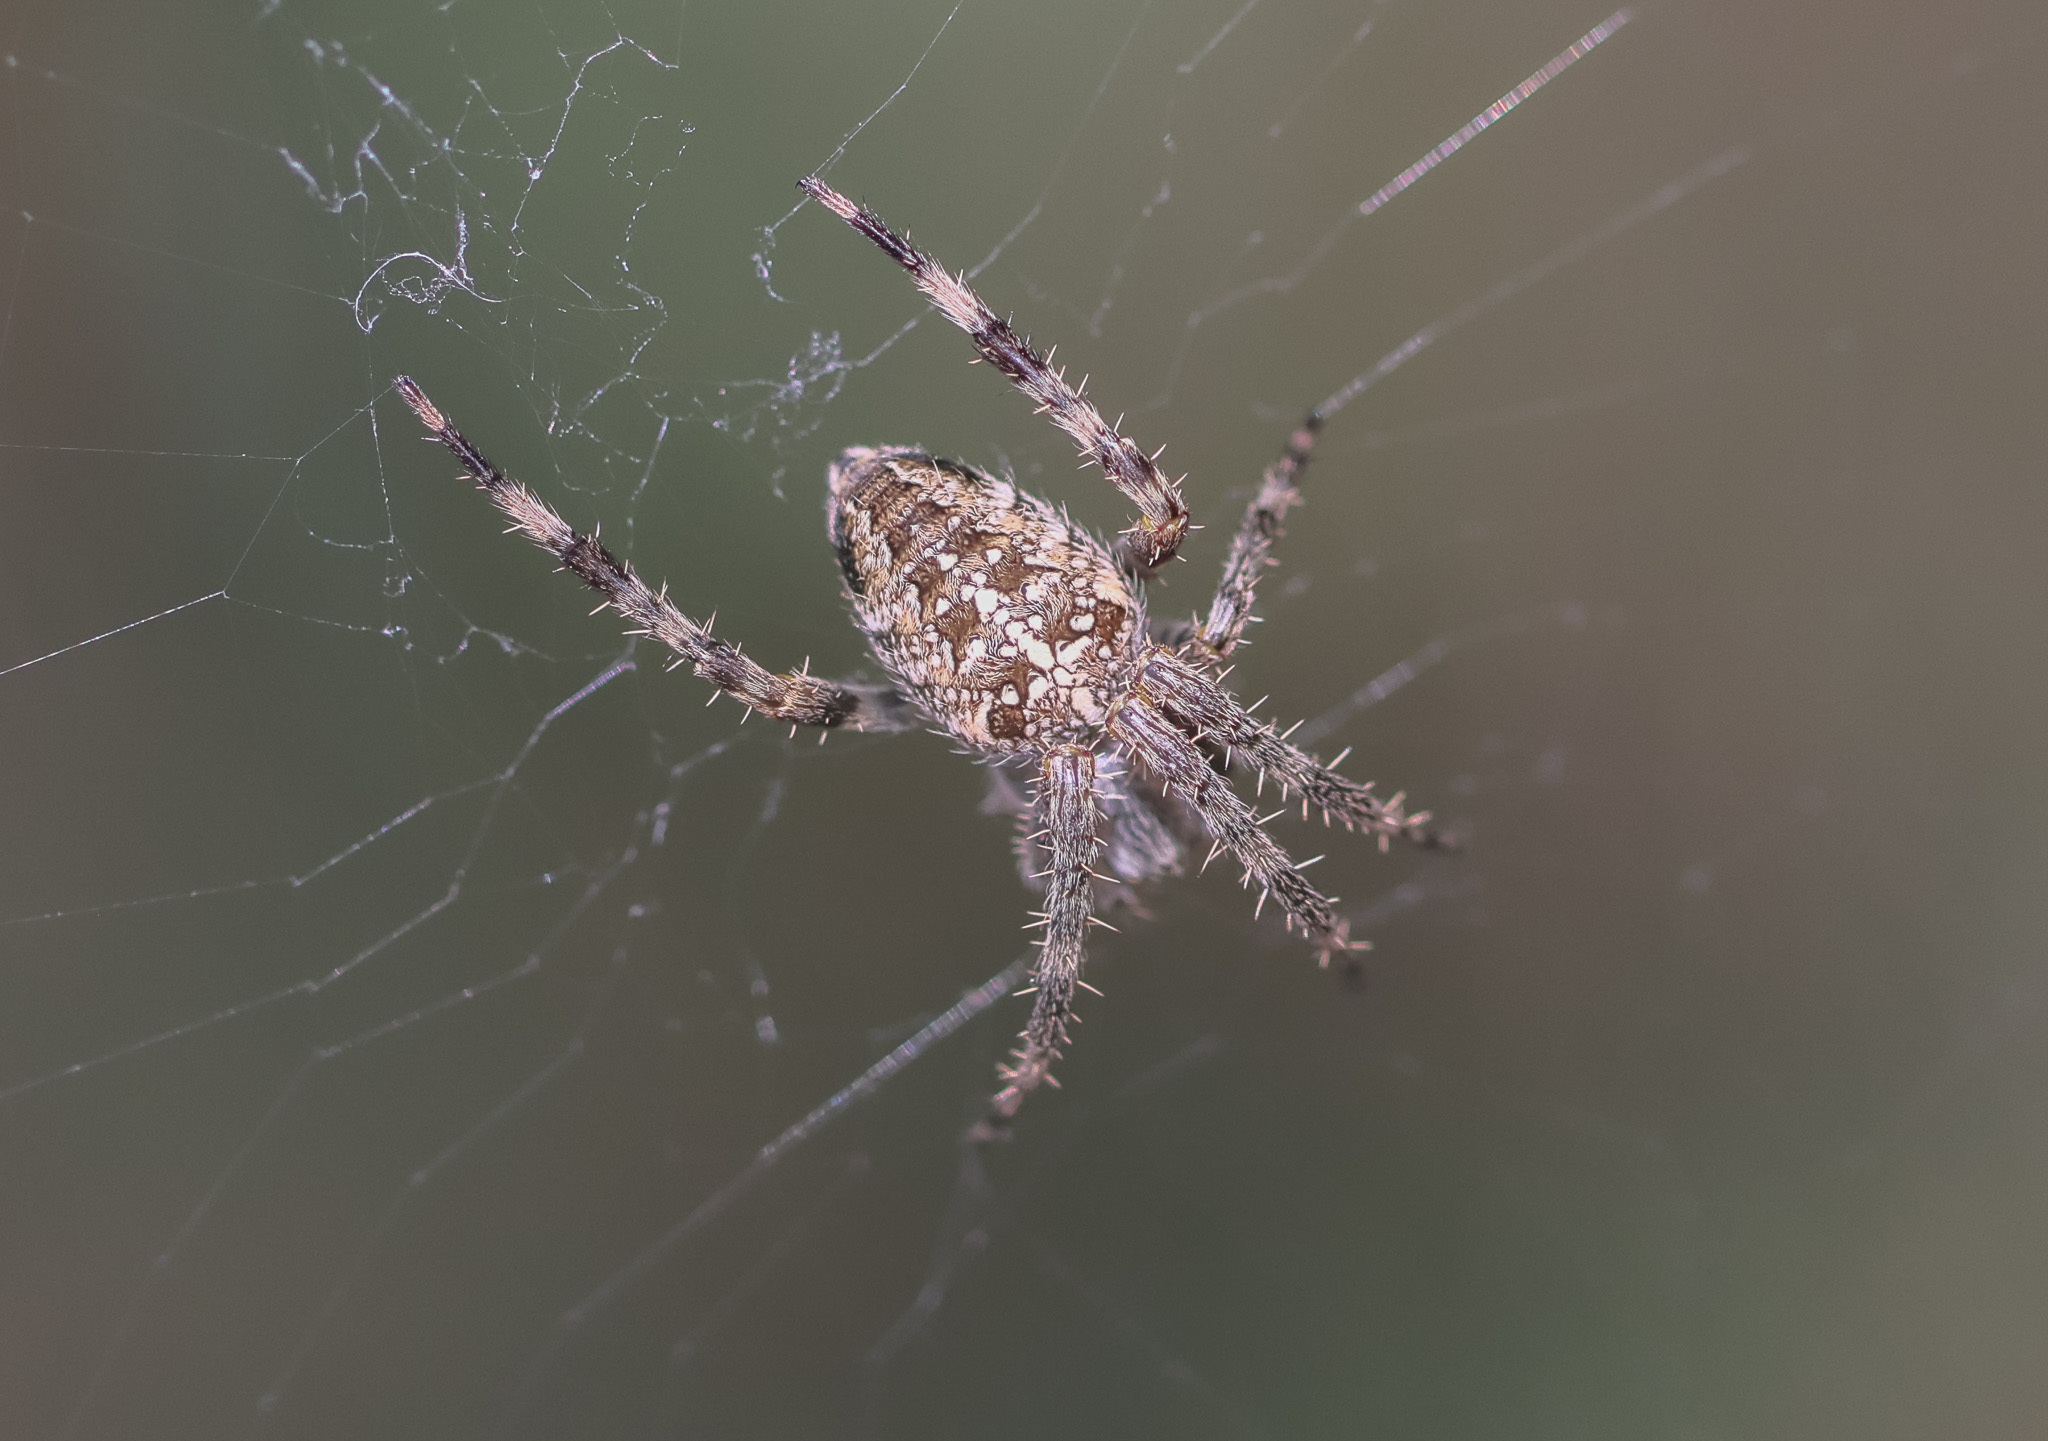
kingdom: Animalia
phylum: Arthropoda
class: Arachnida
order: Araneae
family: Araneidae
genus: Araneus
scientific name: Araneus diadematus
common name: Cross orbweaver
